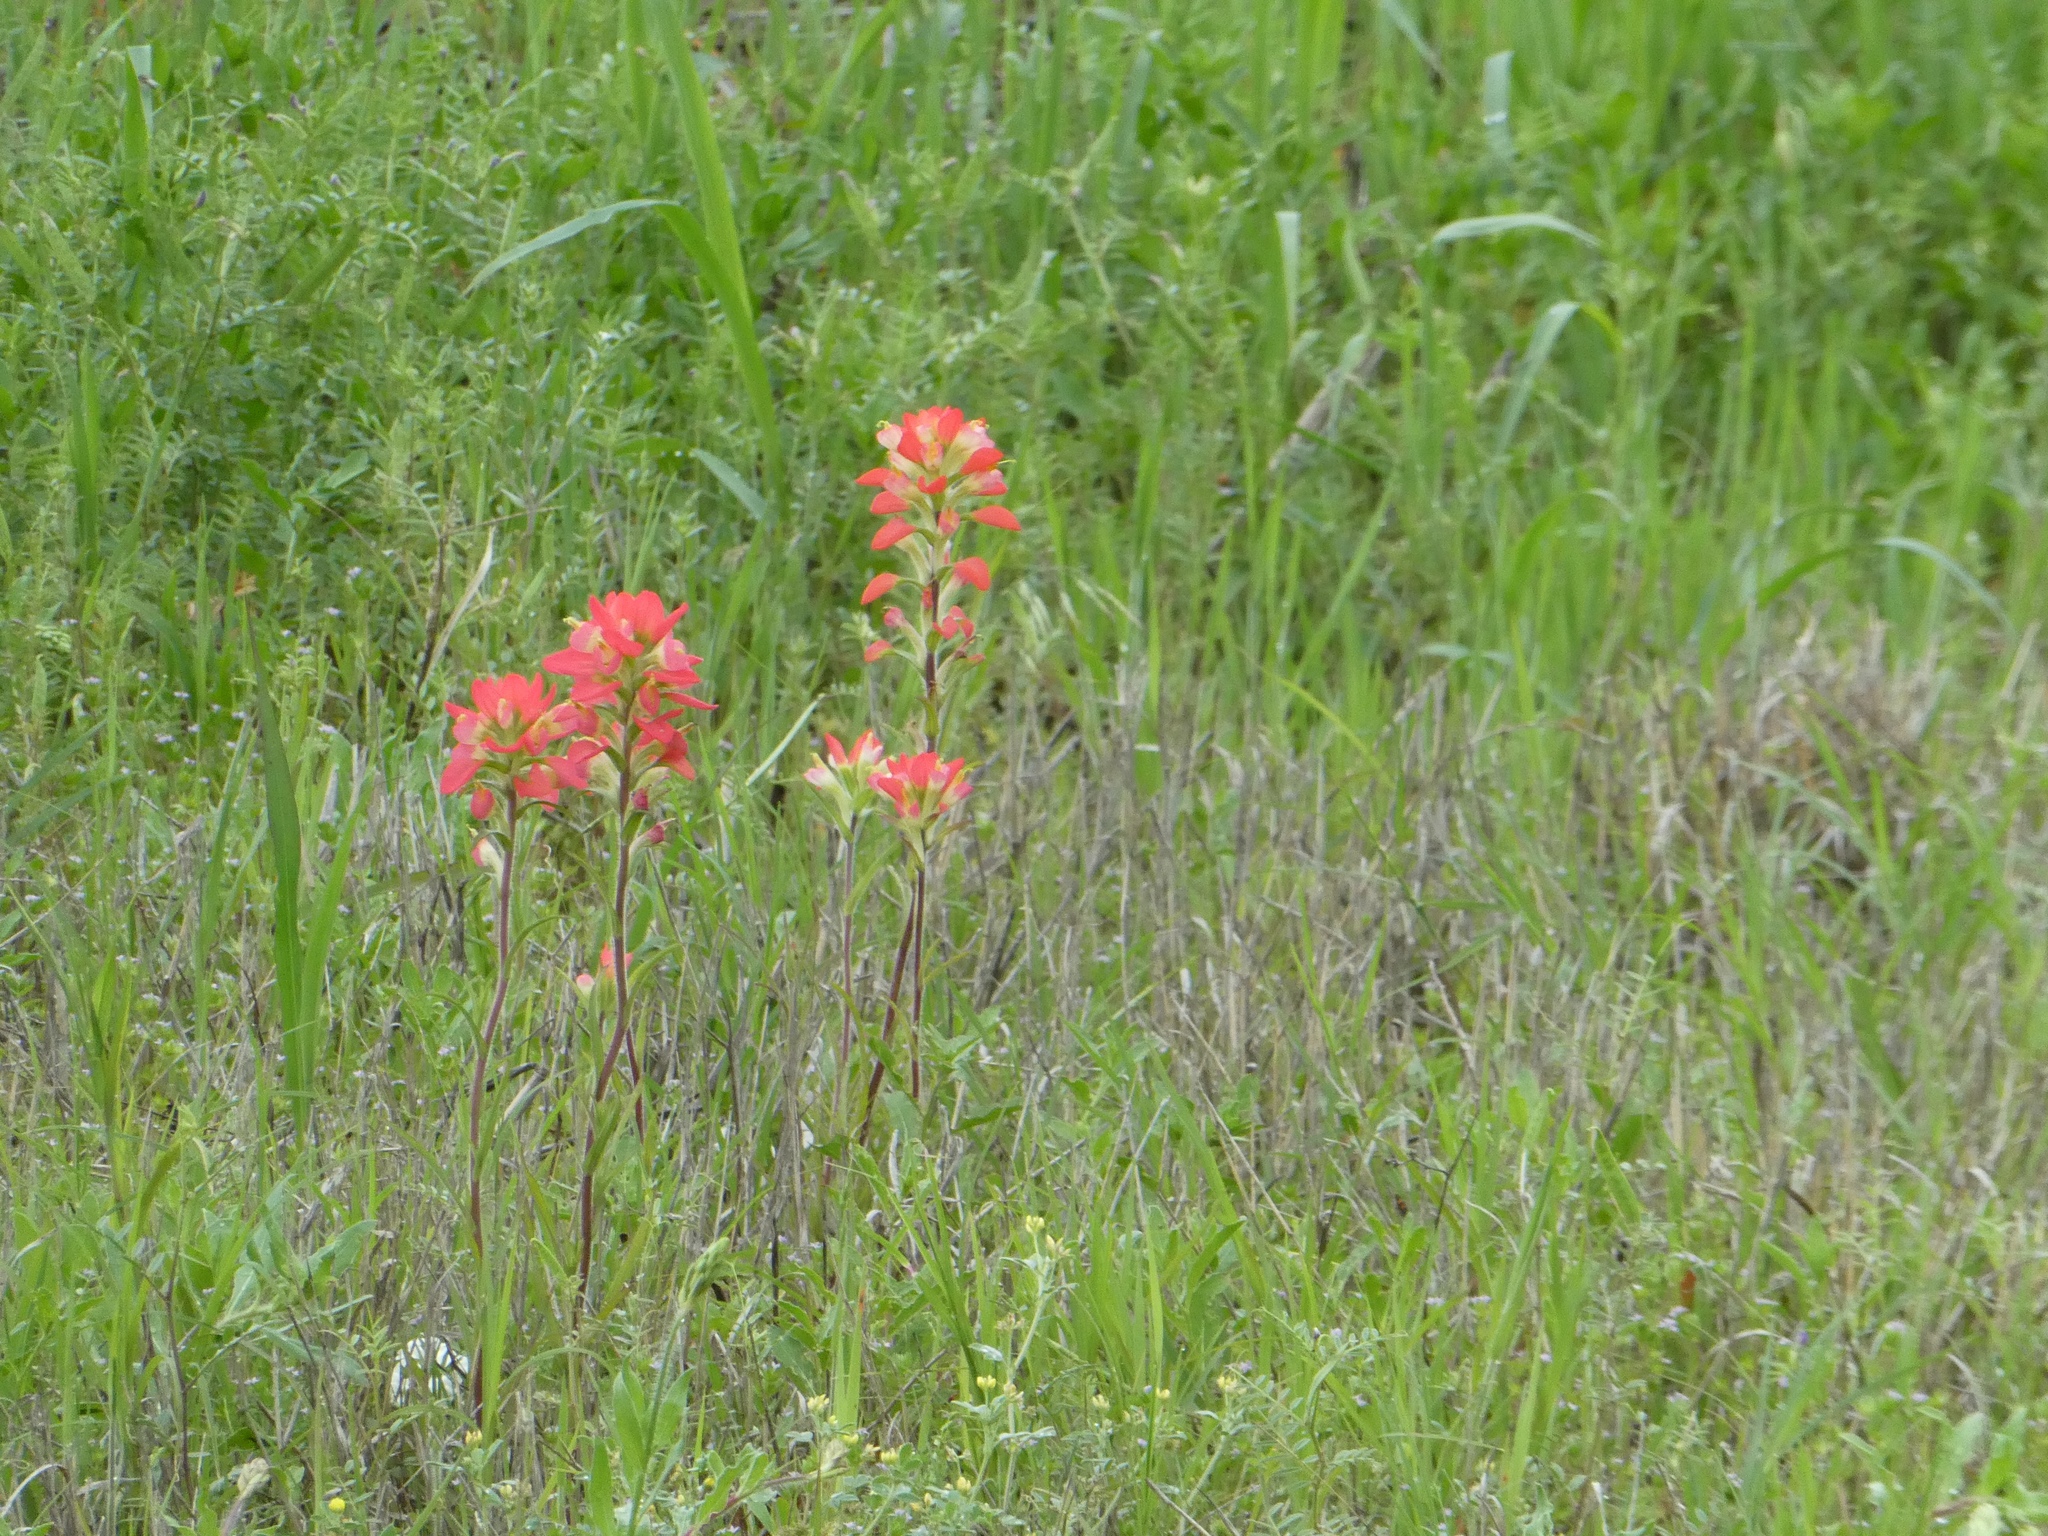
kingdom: Plantae
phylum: Tracheophyta
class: Magnoliopsida
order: Lamiales
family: Orobanchaceae
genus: Castilleja
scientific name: Castilleja indivisa
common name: Texas paintbrush
